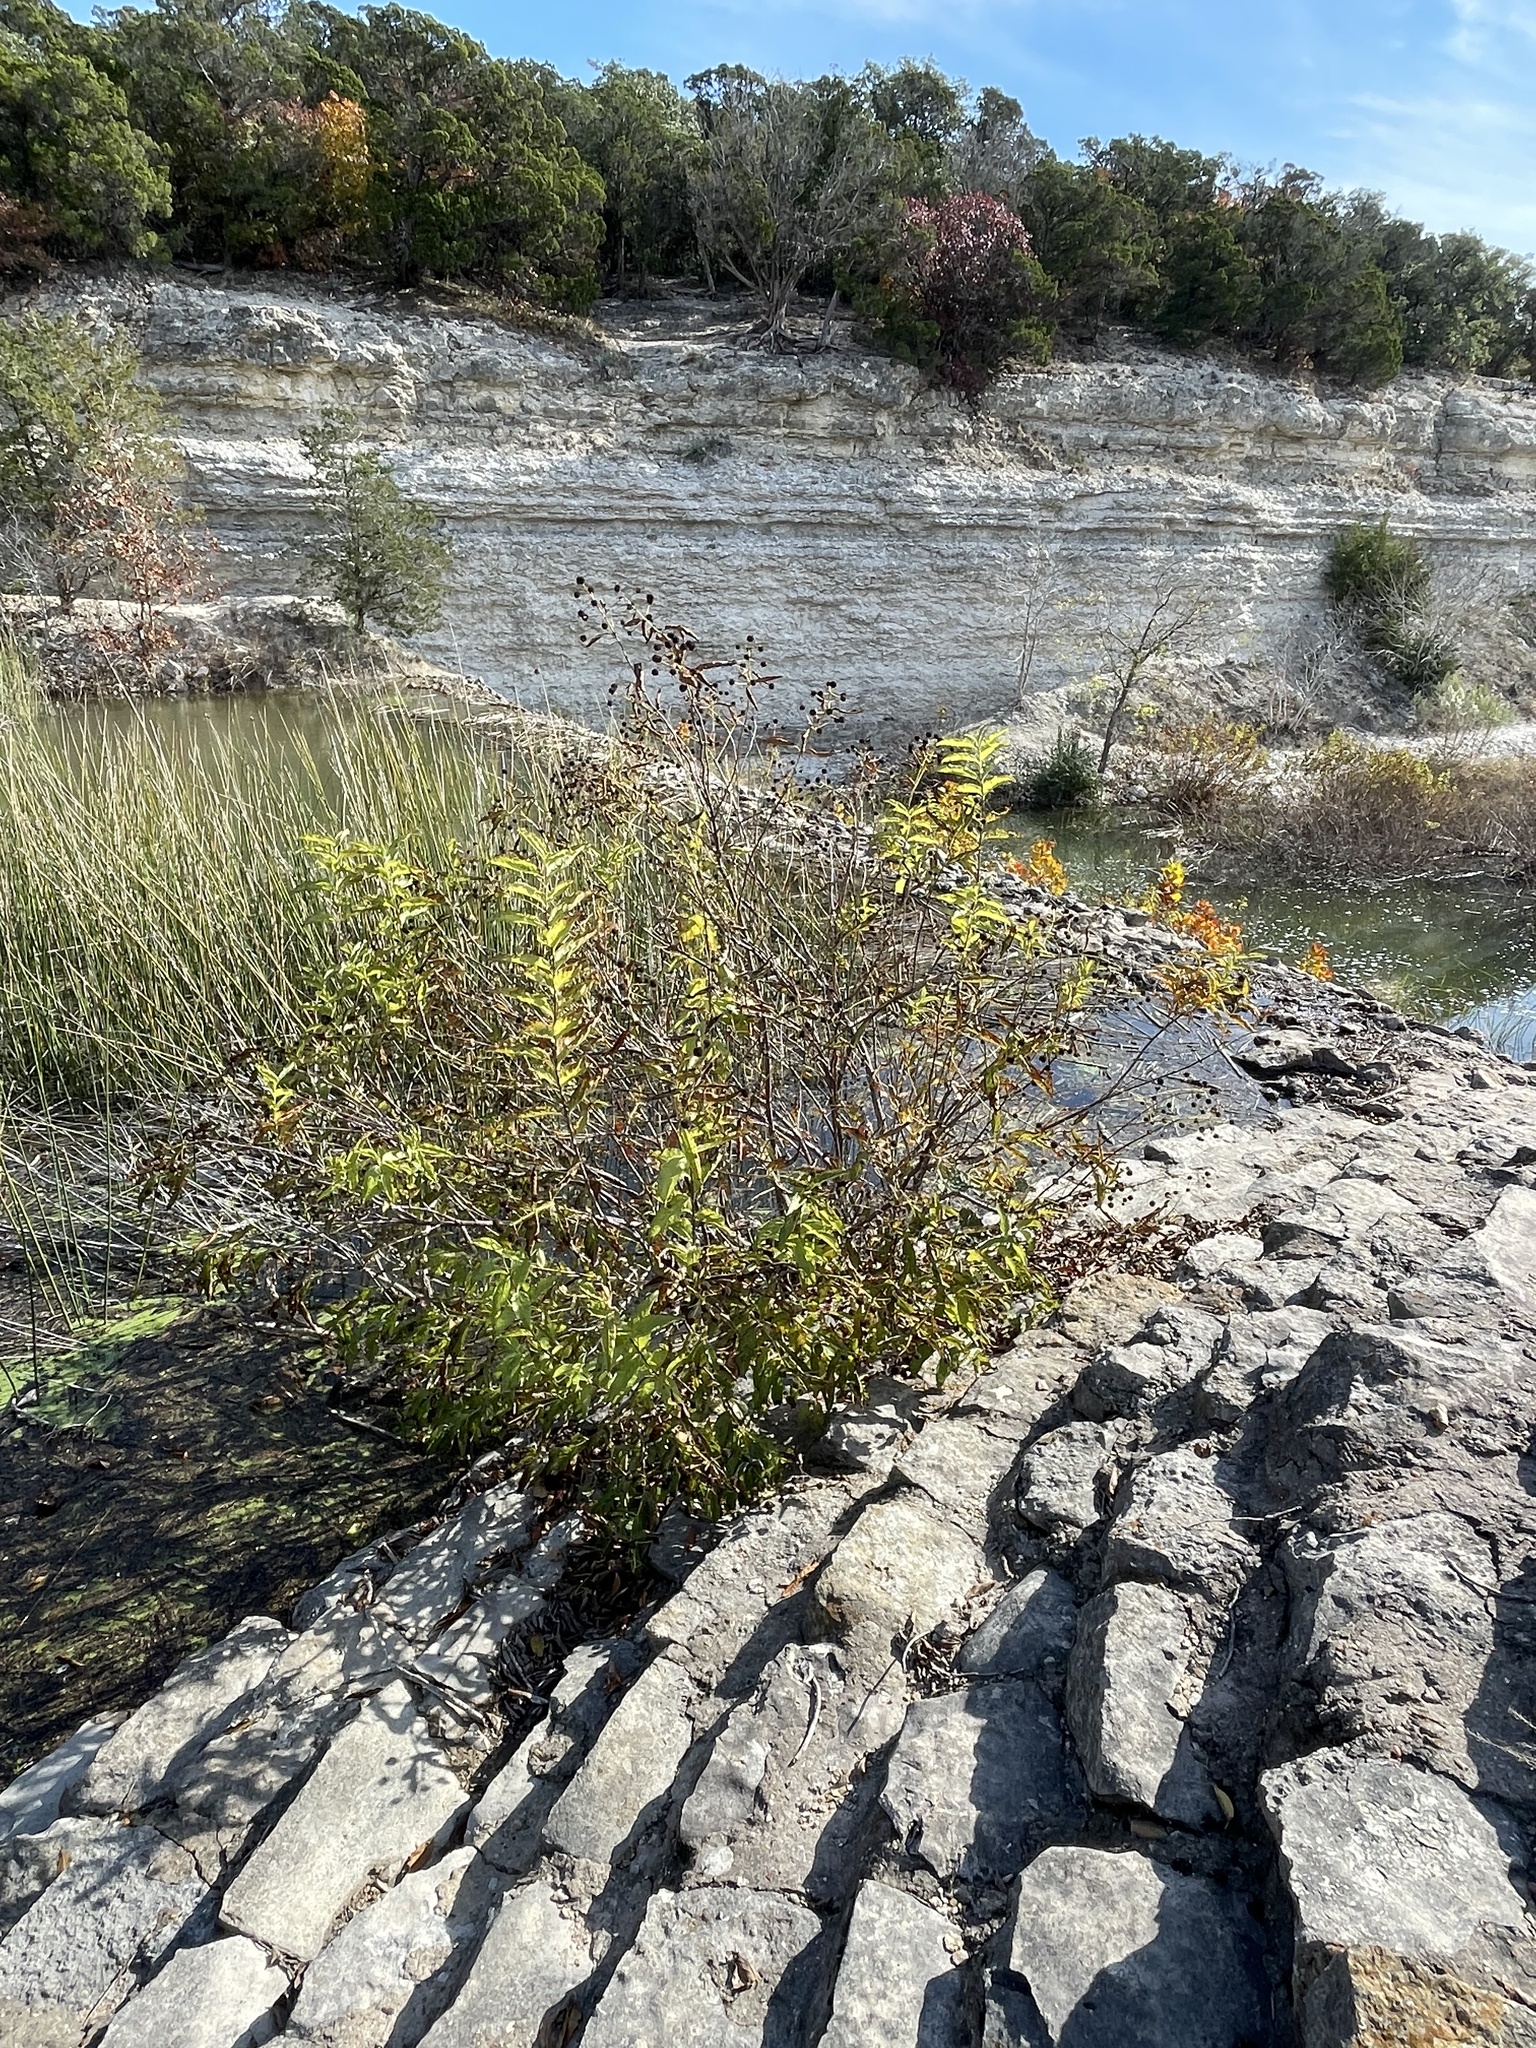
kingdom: Plantae
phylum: Tracheophyta
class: Magnoliopsida
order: Gentianales
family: Rubiaceae
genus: Cephalanthus
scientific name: Cephalanthus occidentalis
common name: Button-willow
